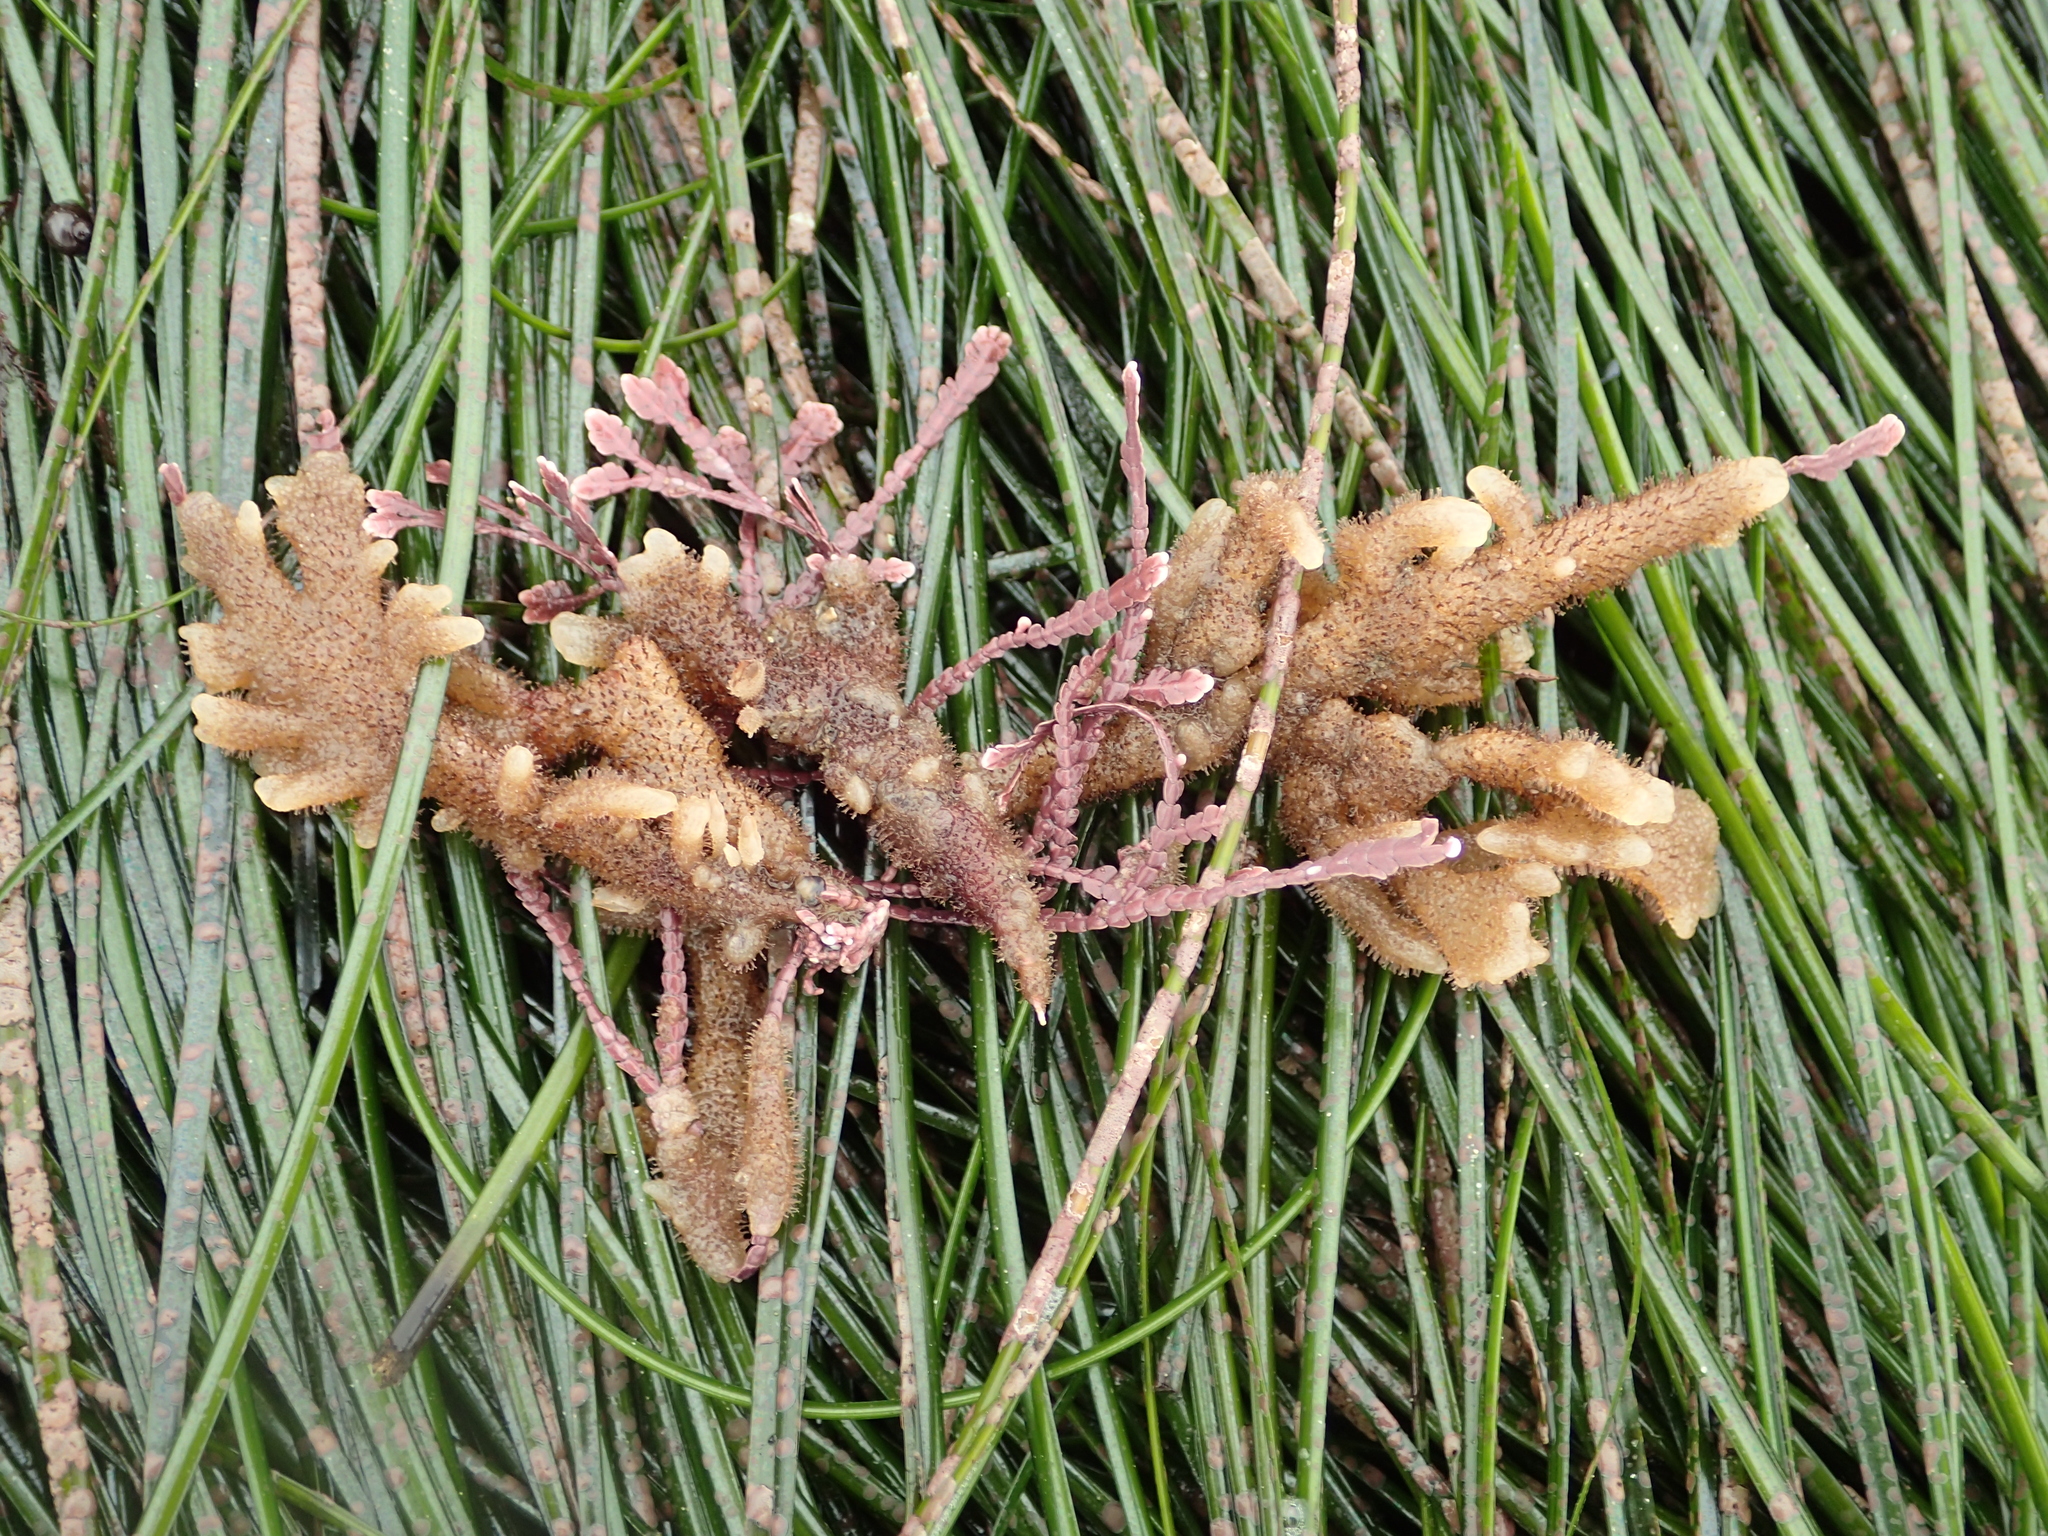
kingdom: Animalia
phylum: Bryozoa
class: Gymnolaemata
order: Ctenostomatida
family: Flustrellidridae
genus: Flustrellidra
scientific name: Flustrellidra corniculata
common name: Spiny leather bryozoan
